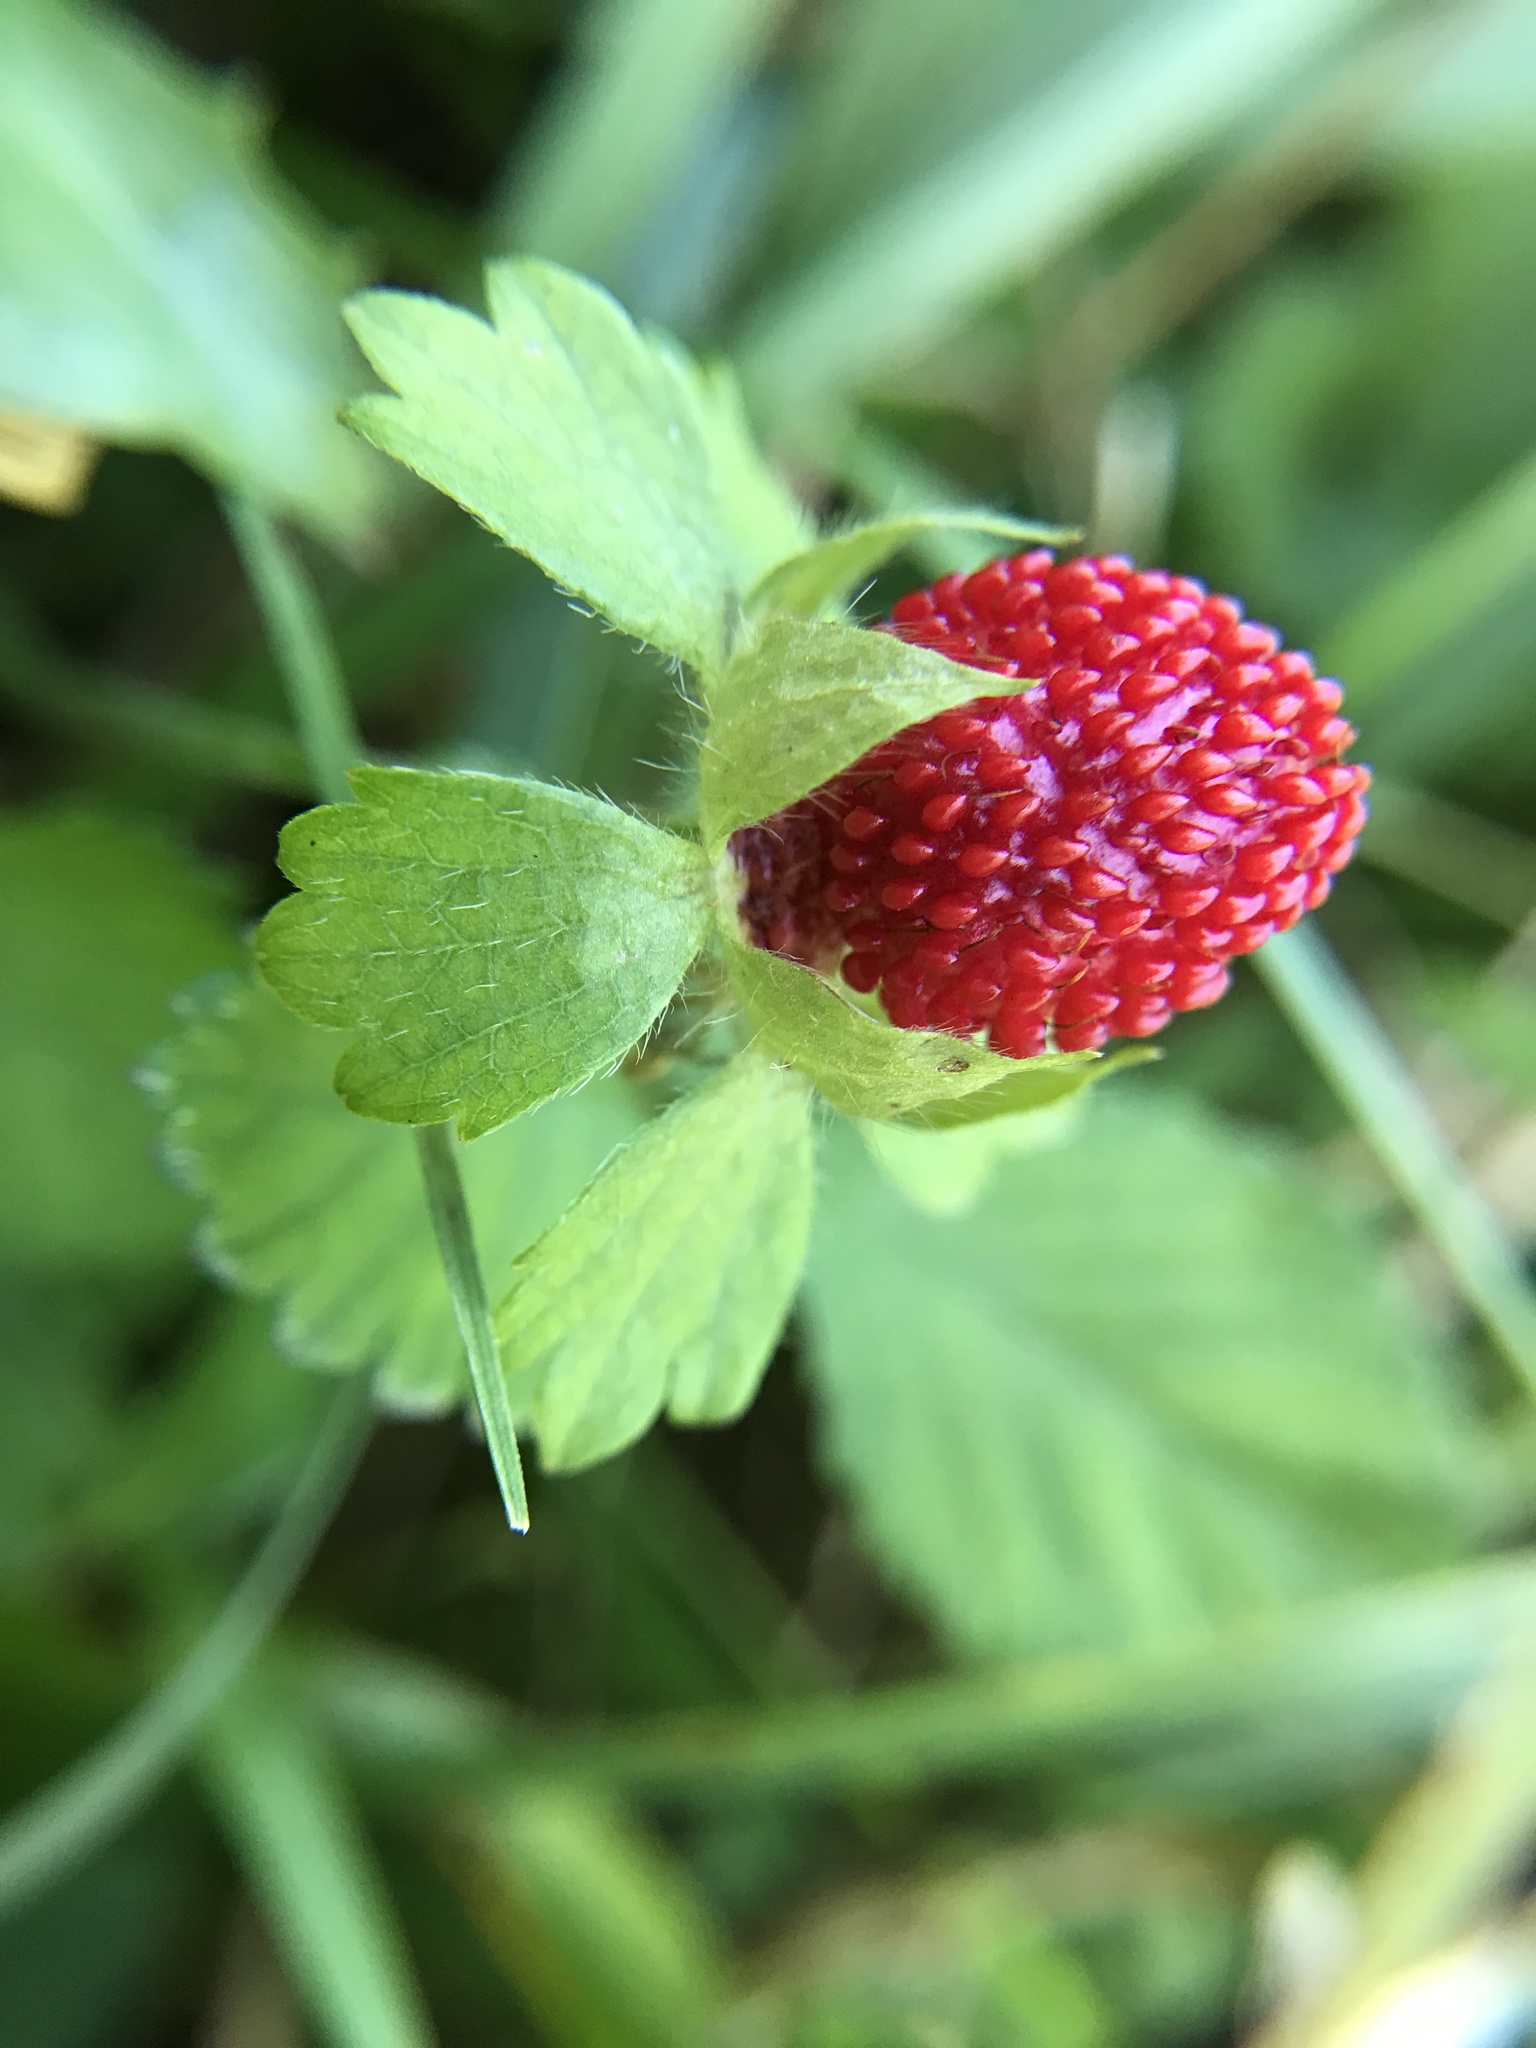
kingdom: Plantae
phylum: Tracheophyta
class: Magnoliopsida
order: Rosales
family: Rosaceae
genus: Potentilla
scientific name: Potentilla indica
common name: Yellow-flowered strawberry
